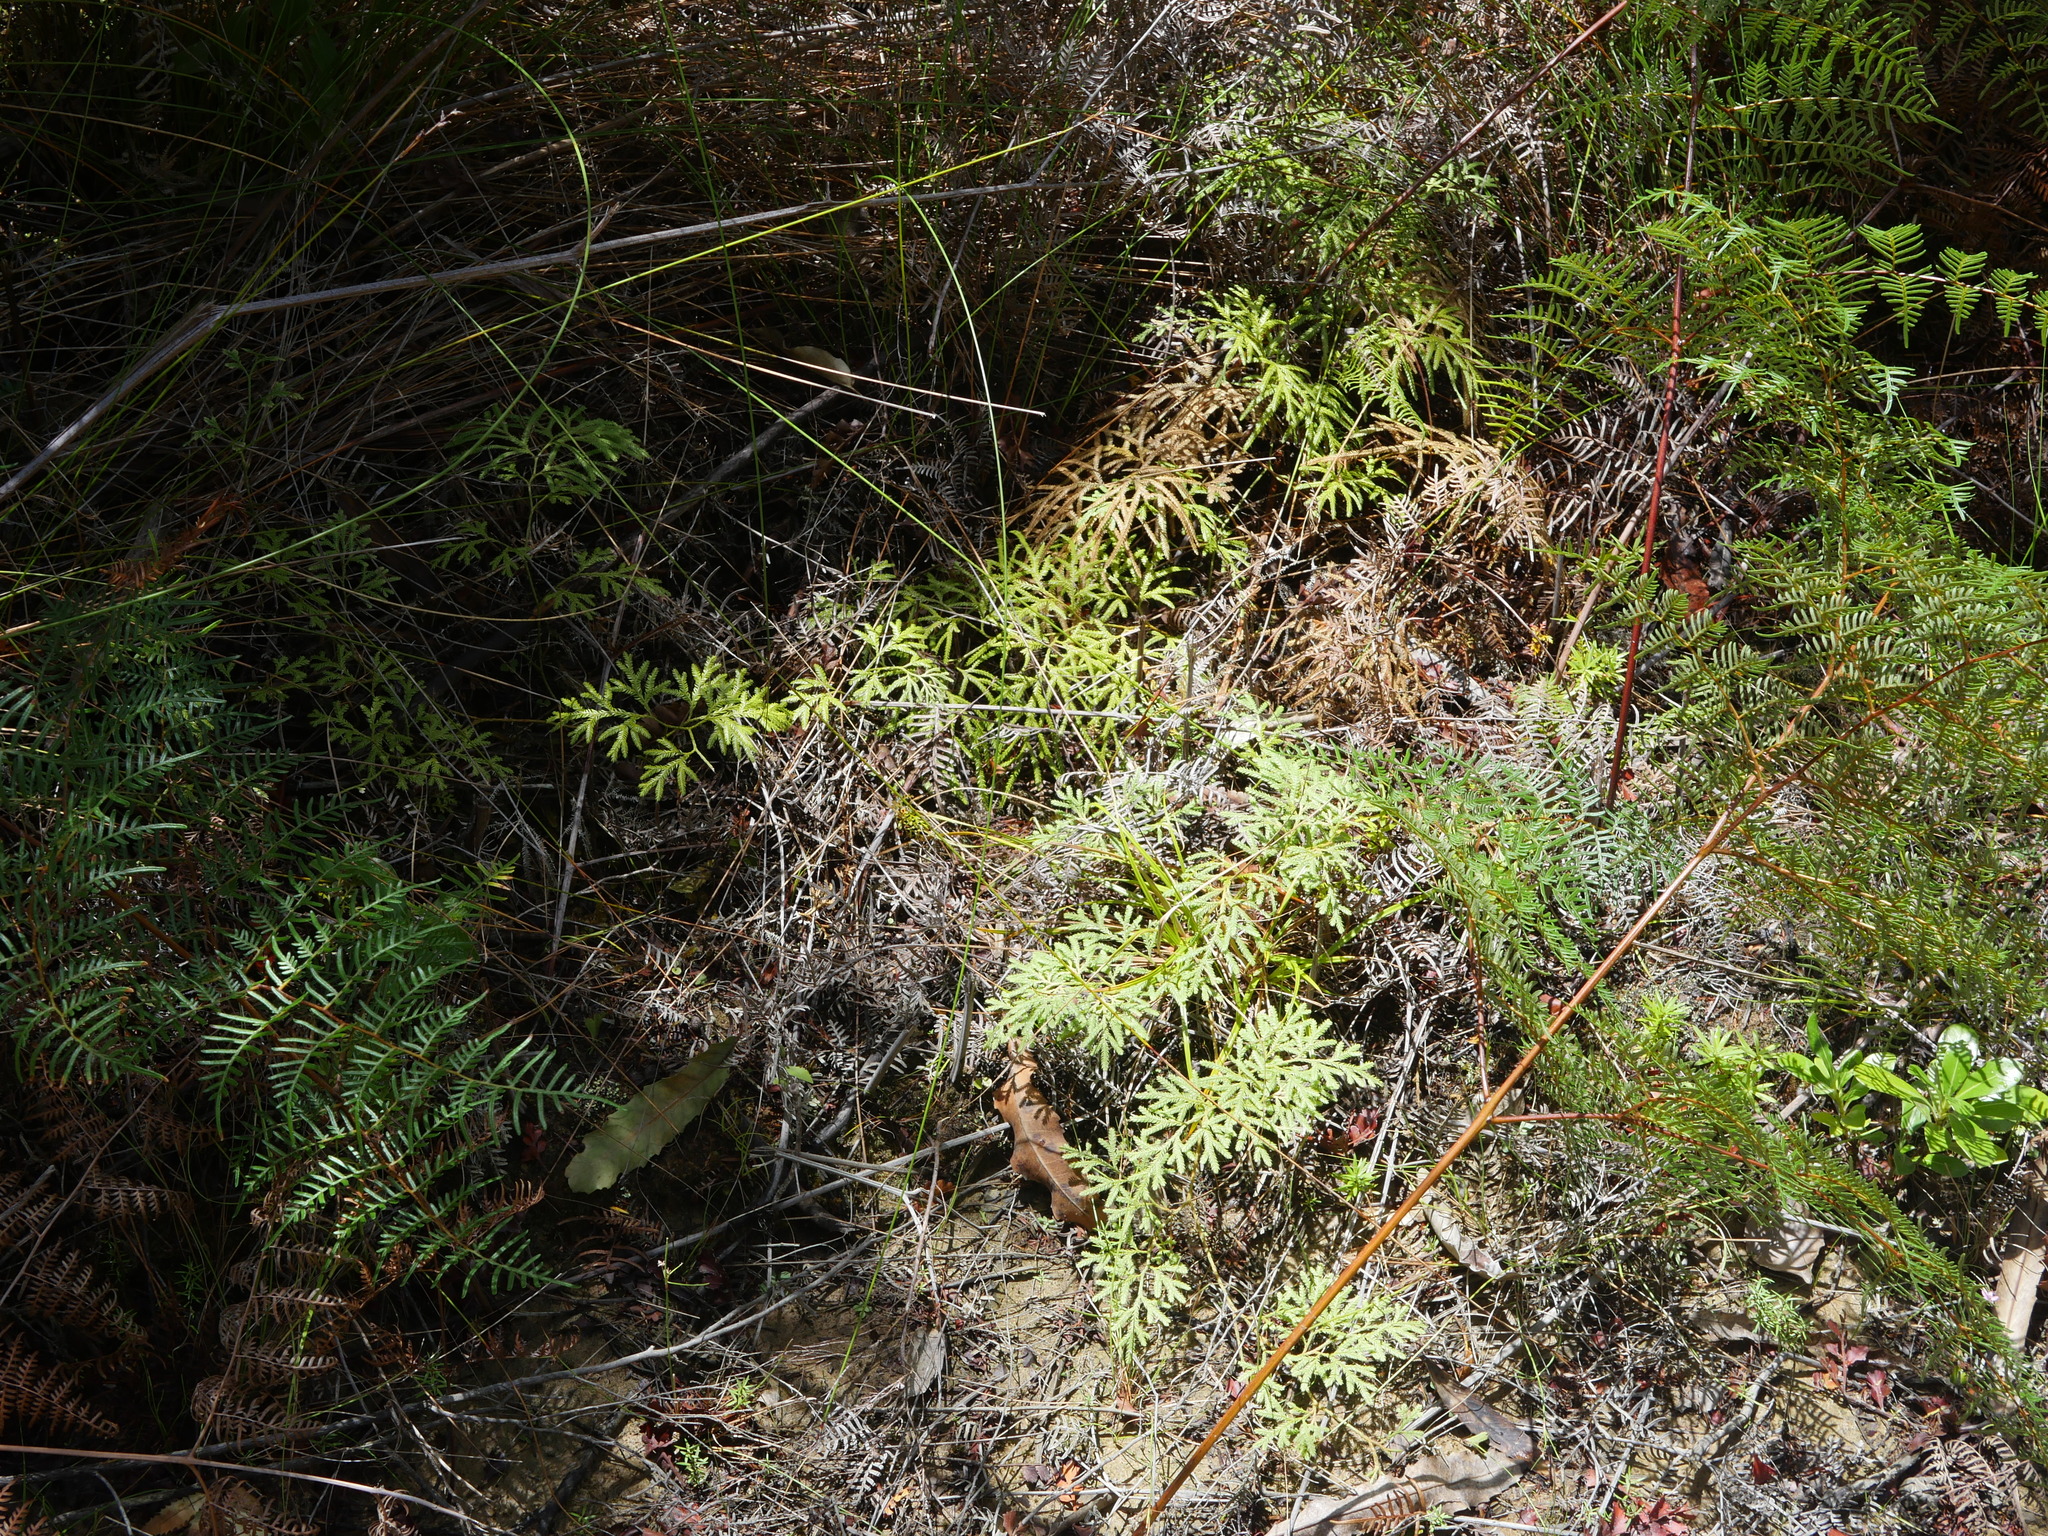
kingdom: Plantae
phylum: Tracheophyta
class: Lycopodiopsida
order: Lycopodiales
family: Lycopodiaceae
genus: Lycopodium
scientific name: Lycopodium volubile
